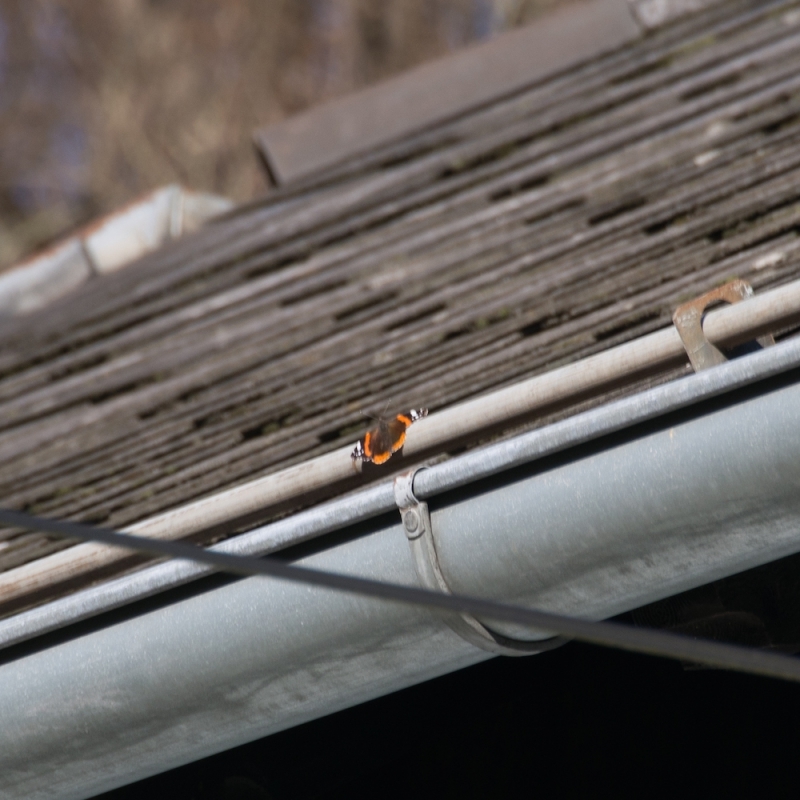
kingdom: Animalia
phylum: Arthropoda
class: Insecta
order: Lepidoptera
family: Nymphalidae
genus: Vanessa
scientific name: Vanessa atalanta
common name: Red admiral
